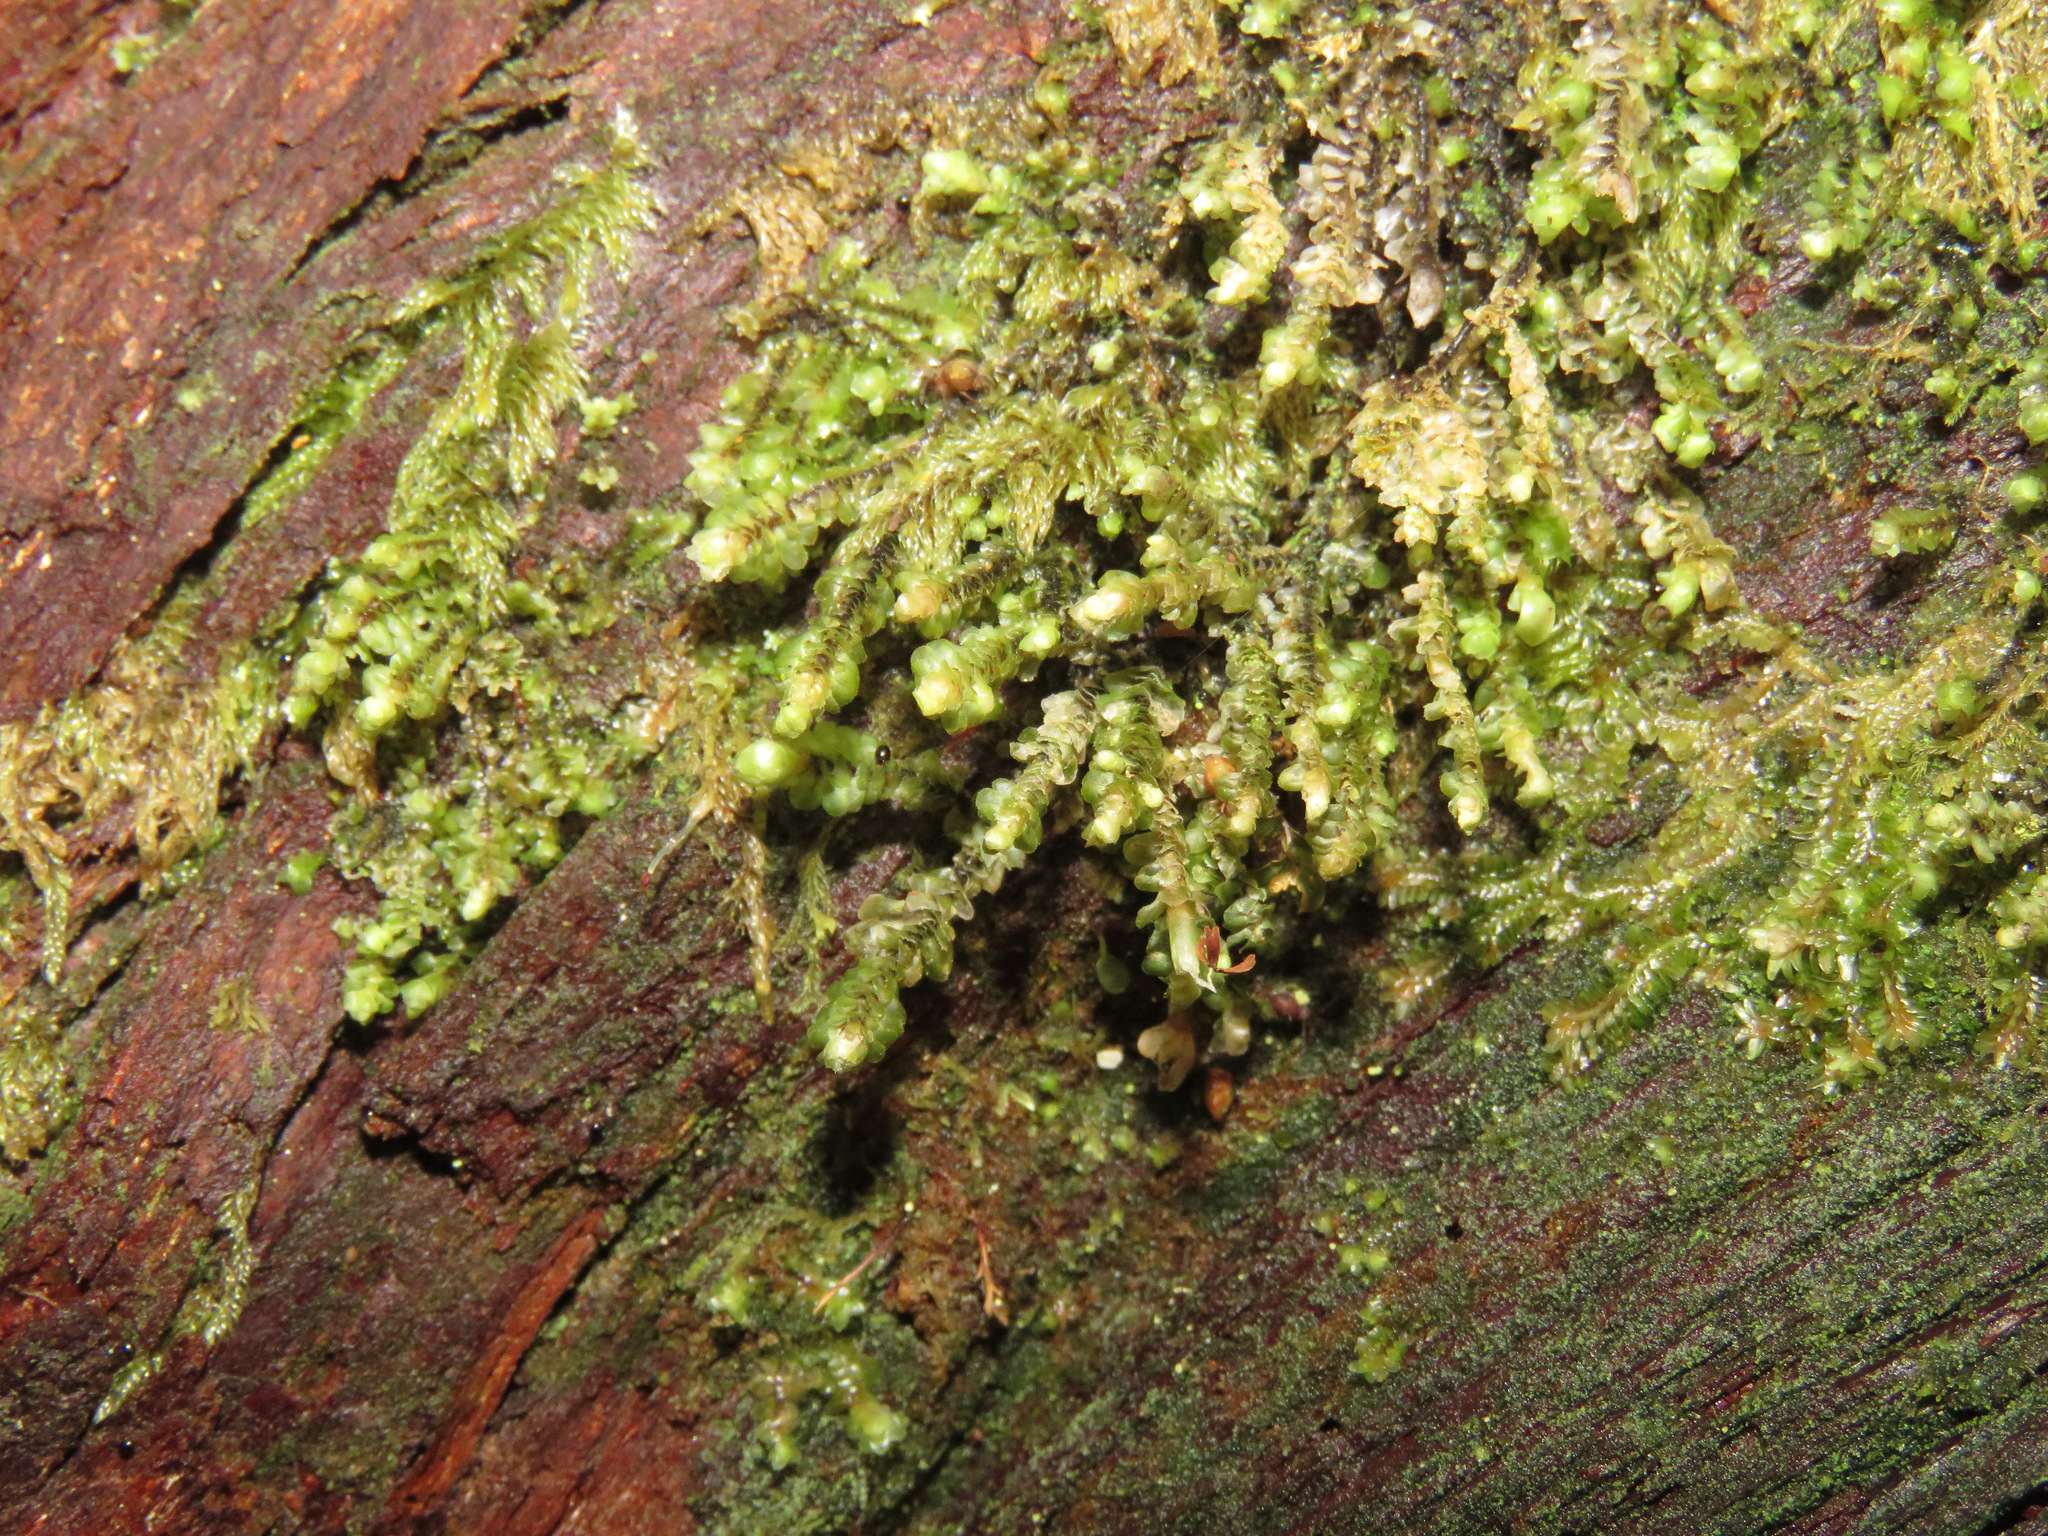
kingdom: Plantae
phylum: Marchantiophyta
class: Jungermanniopsida
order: Jungermanniales
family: Scapaniaceae
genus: Scapania
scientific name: Scapania bolanderi
